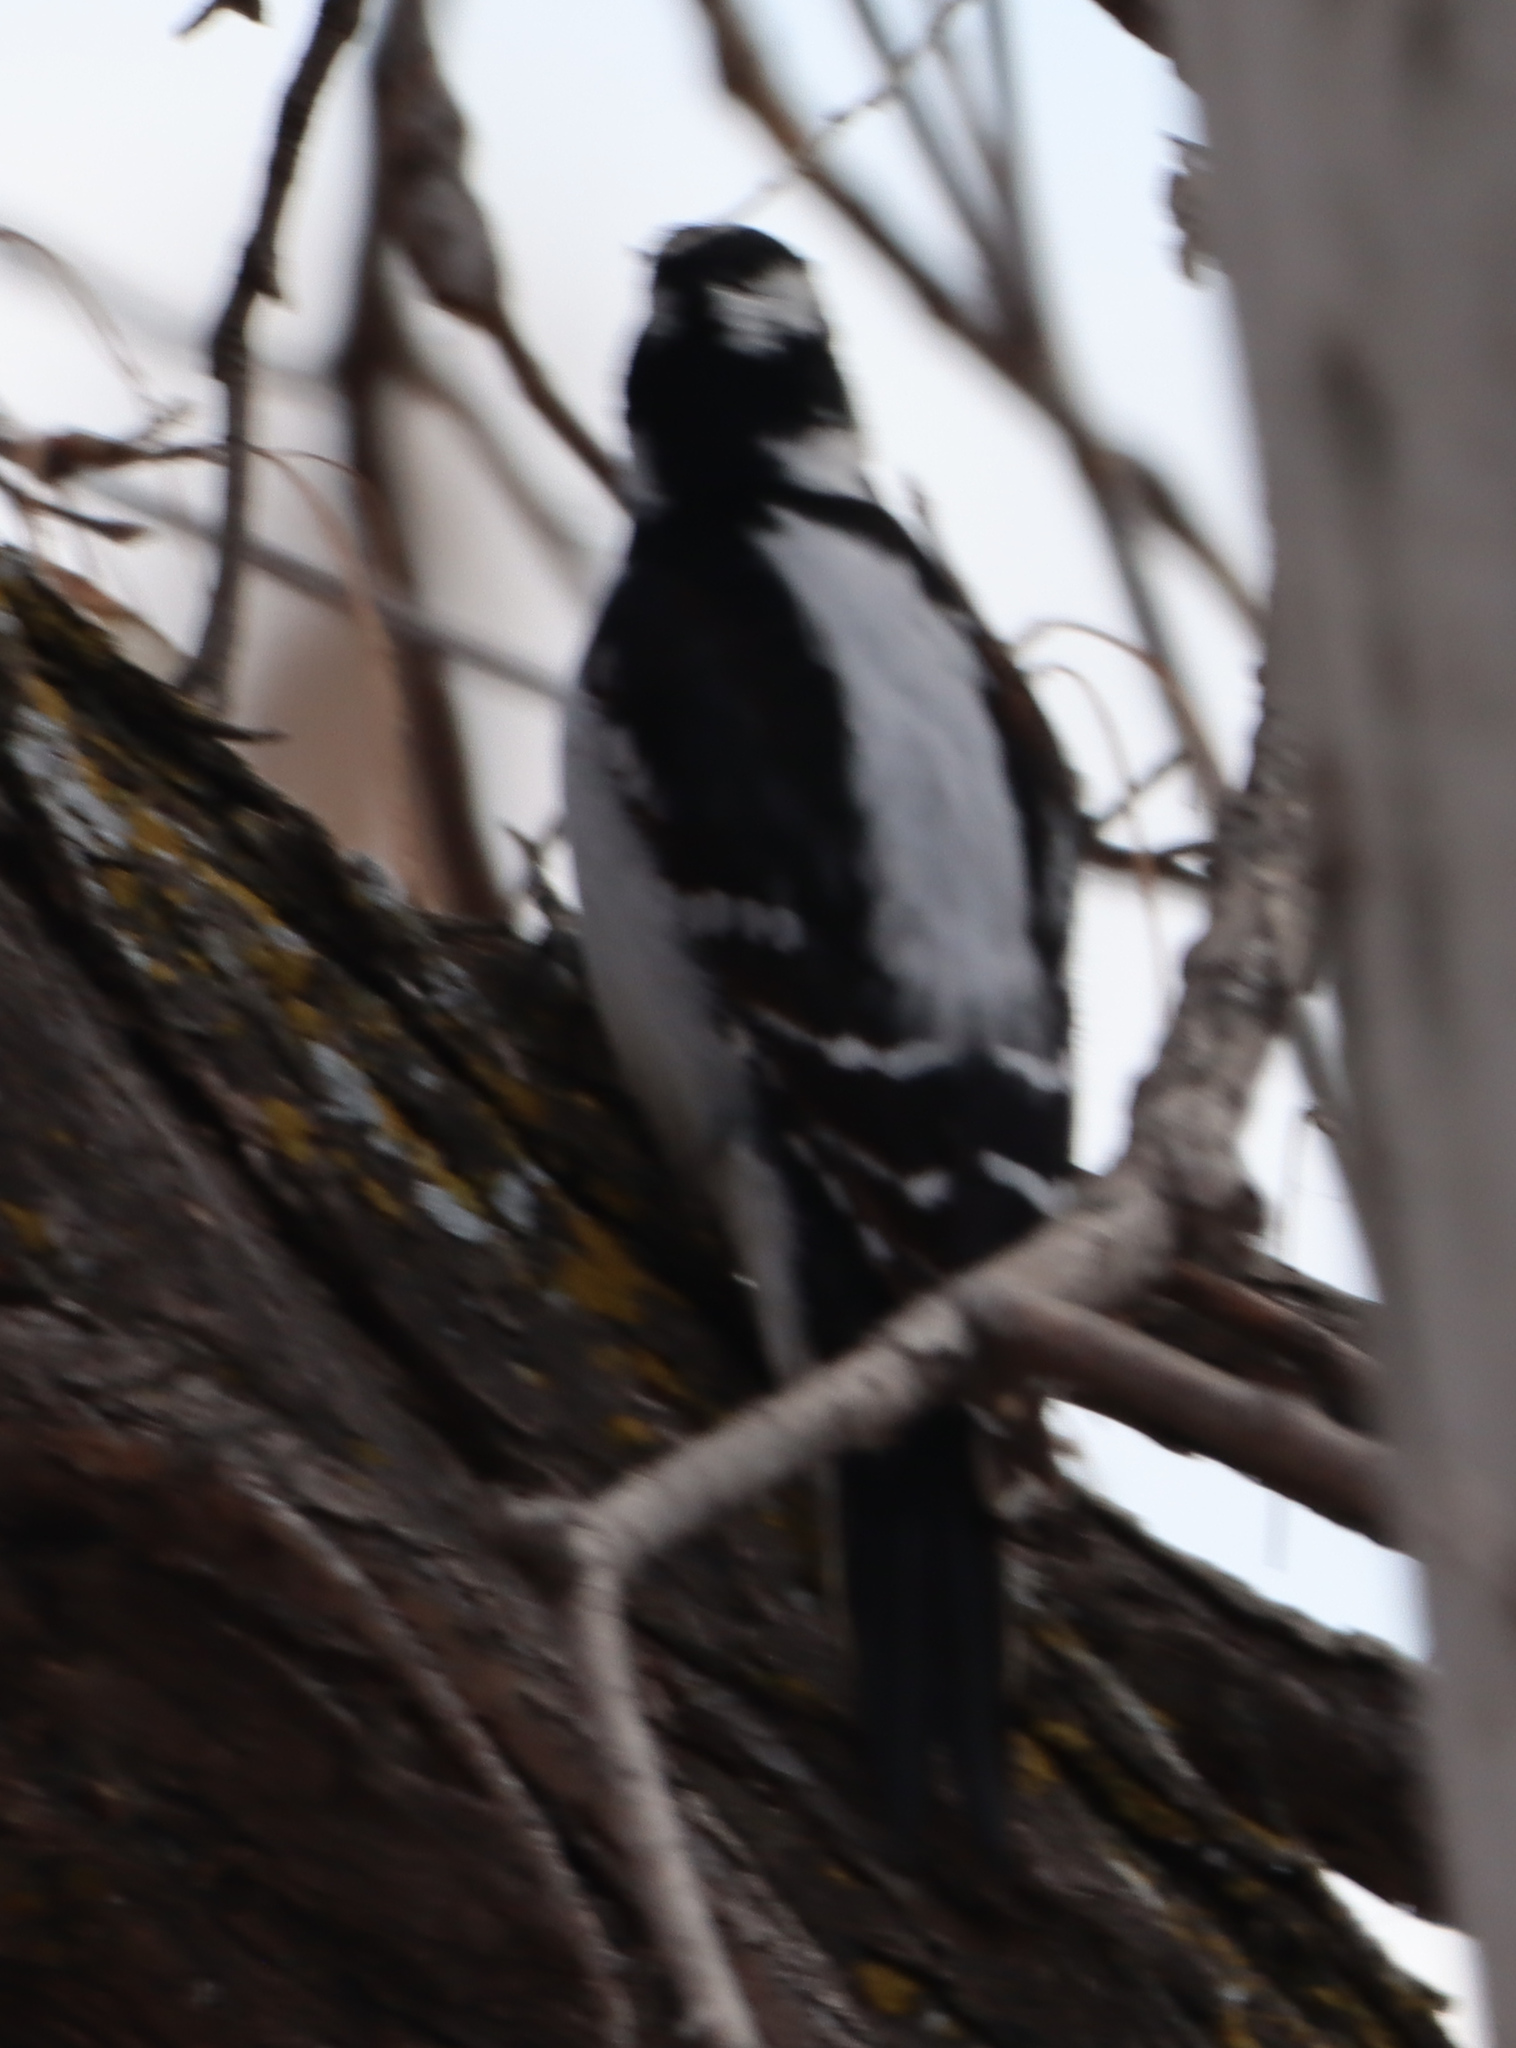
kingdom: Animalia
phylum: Chordata
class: Aves
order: Piciformes
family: Picidae
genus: Leuconotopicus
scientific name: Leuconotopicus villosus
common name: Hairy woodpecker
